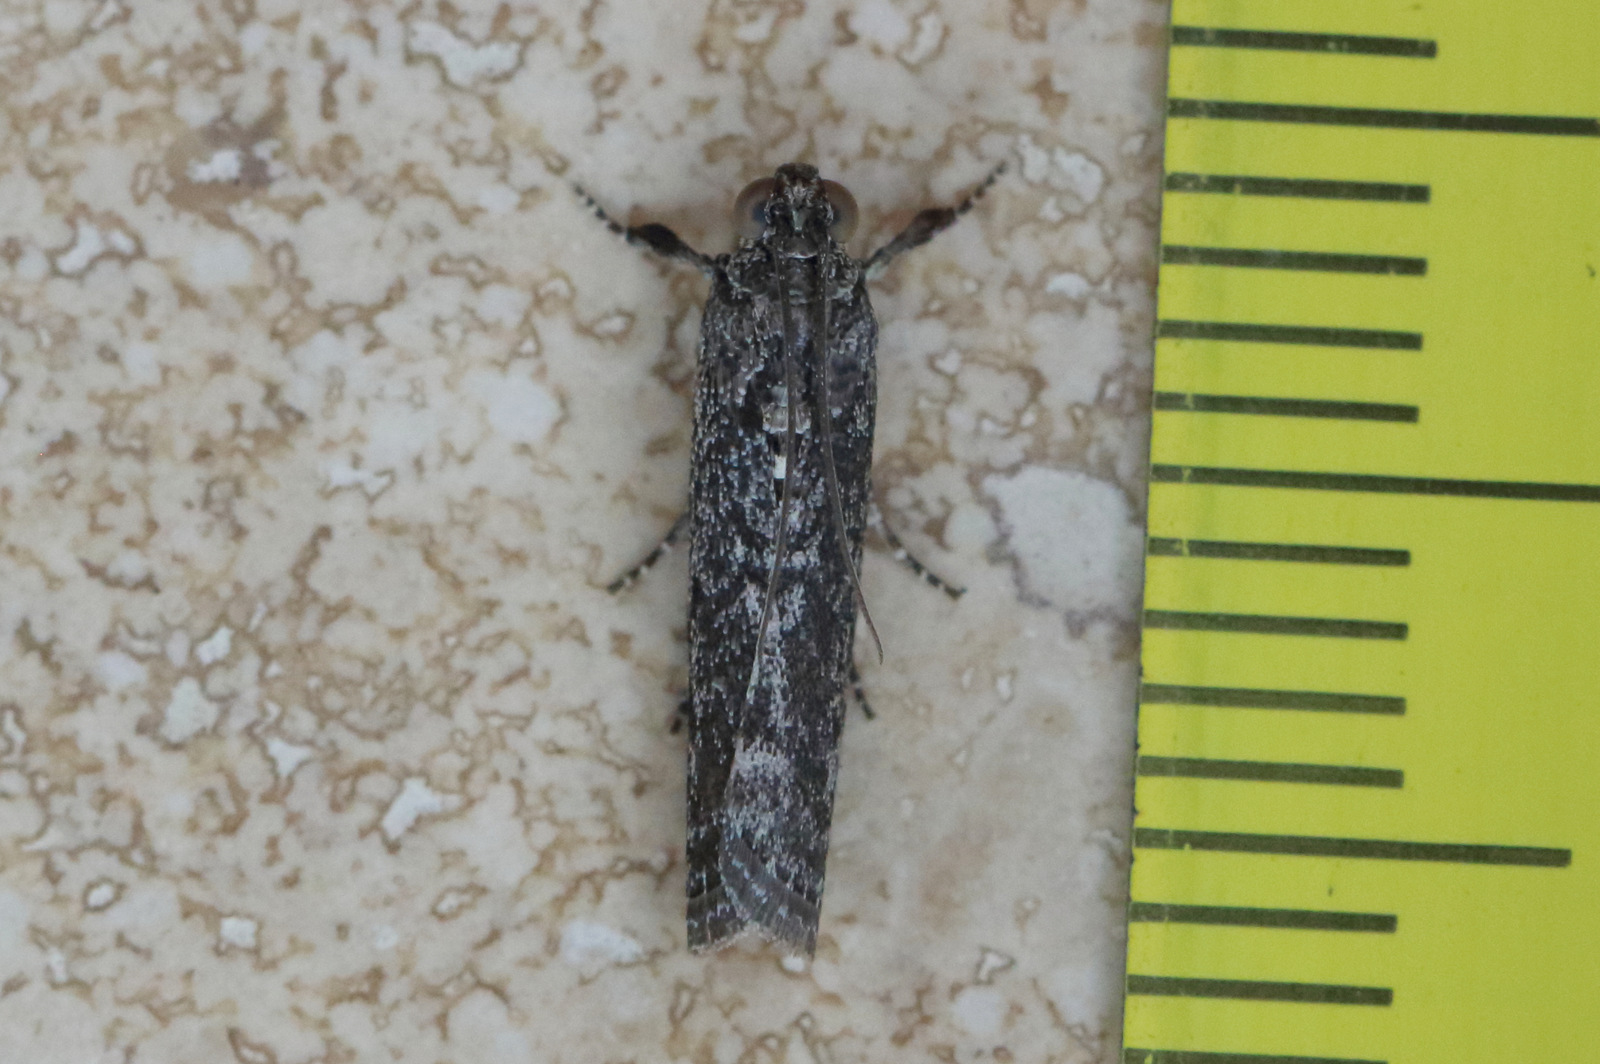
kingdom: Animalia
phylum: Arthropoda
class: Insecta
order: Lepidoptera
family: Pyralidae
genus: Sciota
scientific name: Sciota
